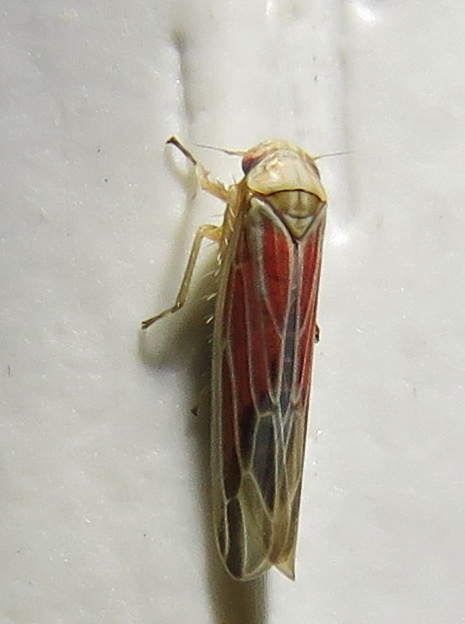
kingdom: Animalia
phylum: Arthropoda
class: Insecta
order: Hemiptera
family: Cicadellidae
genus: Balclutha
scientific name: Balclutha rubrostriata
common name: Red-streaked leafhopper
